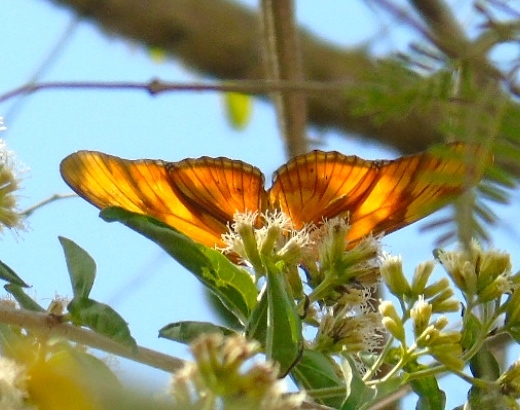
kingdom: Animalia
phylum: Arthropoda
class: Insecta
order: Lepidoptera
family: Nymphalidae
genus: Dryas
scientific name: Dryas iulia
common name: Flambeau
